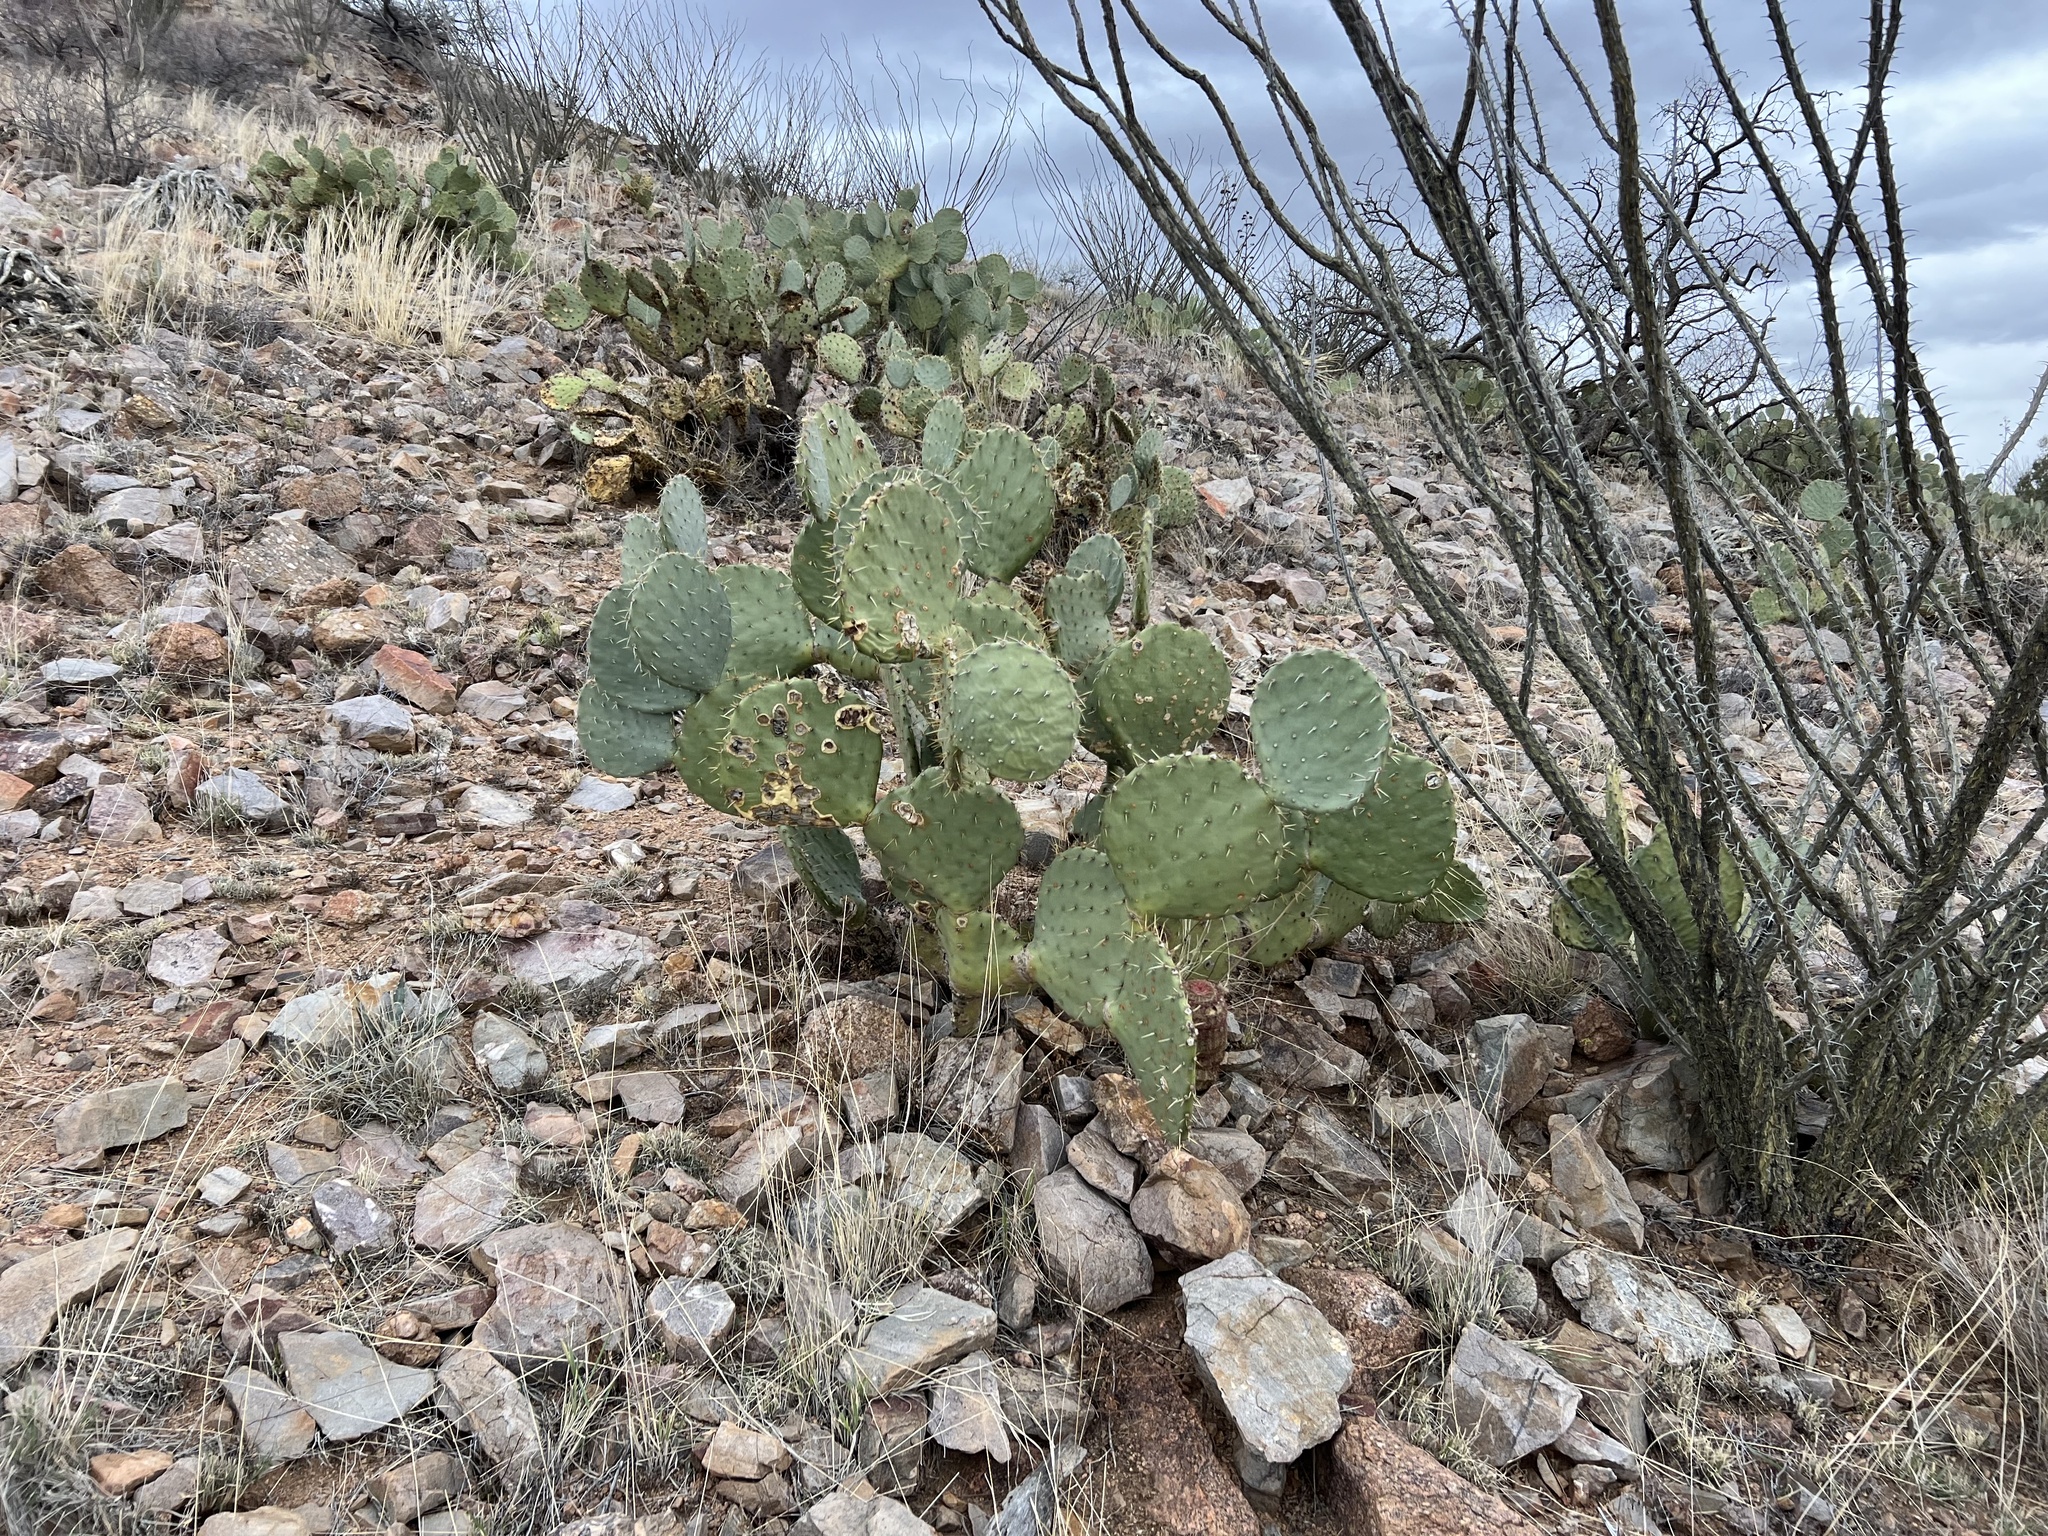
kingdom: Plantae
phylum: Tracheophyta
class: Magnoliopsida
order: Caryophyllales
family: Cactaceae
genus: Opuntia
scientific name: Opuntia engelmannii
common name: Cactus-apple
